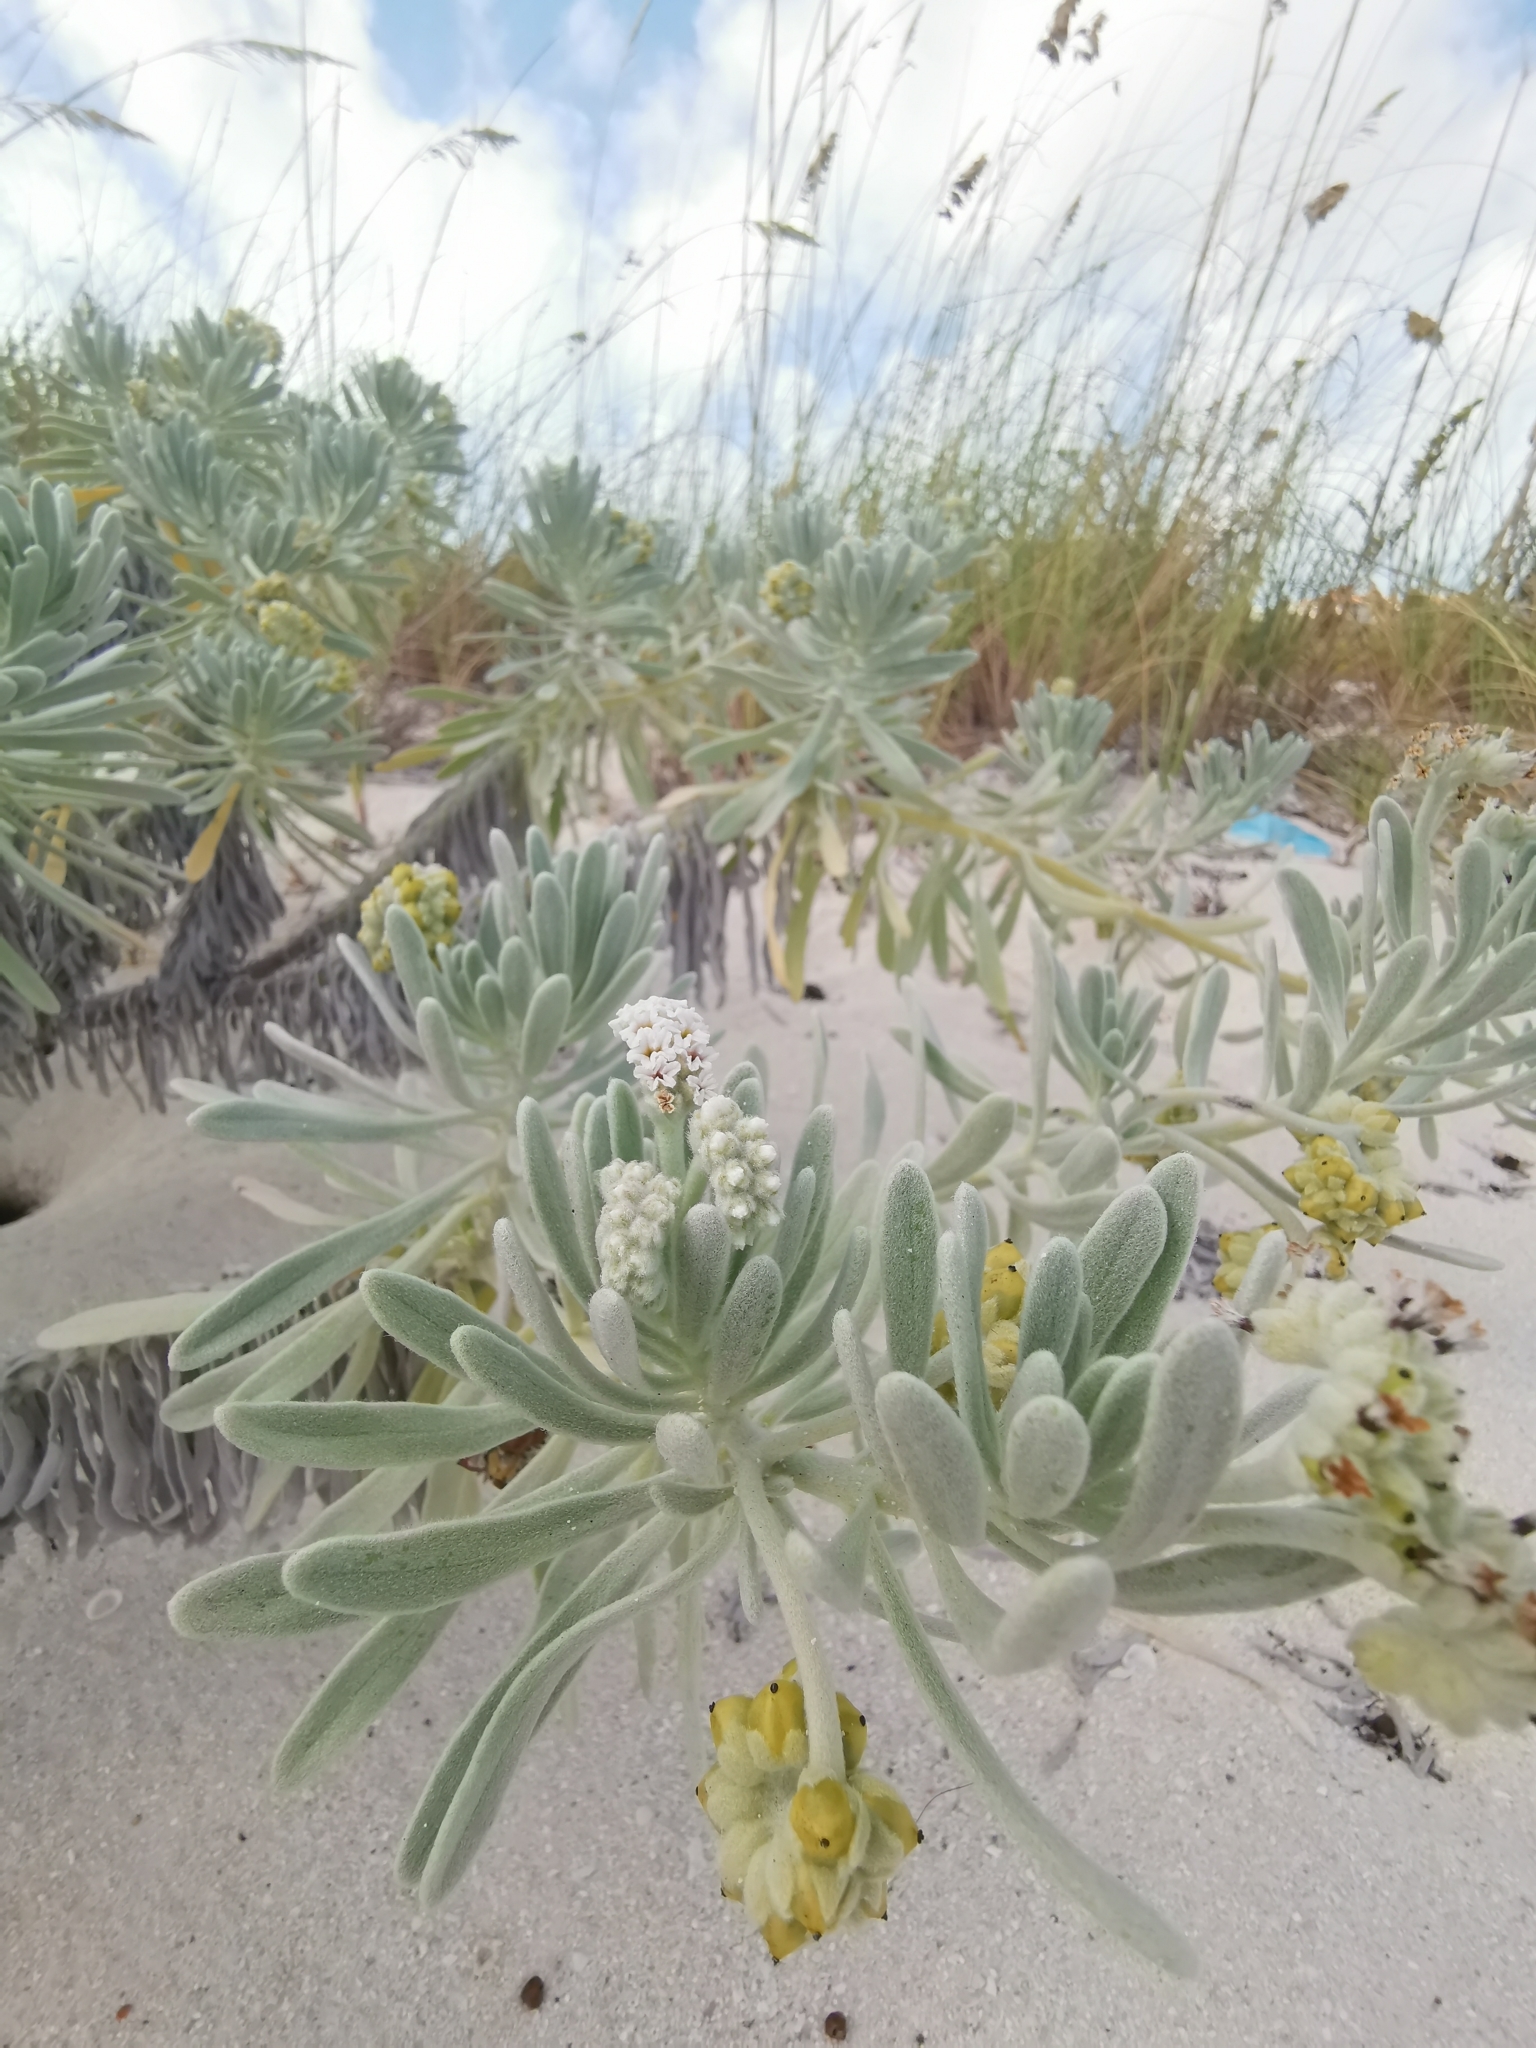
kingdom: Plantae
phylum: Tracheophyta
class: Magnoliopsida
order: Boraginales
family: Heliotropiaceae
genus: Tournefortia
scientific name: Tournefortia gnaphalodes
